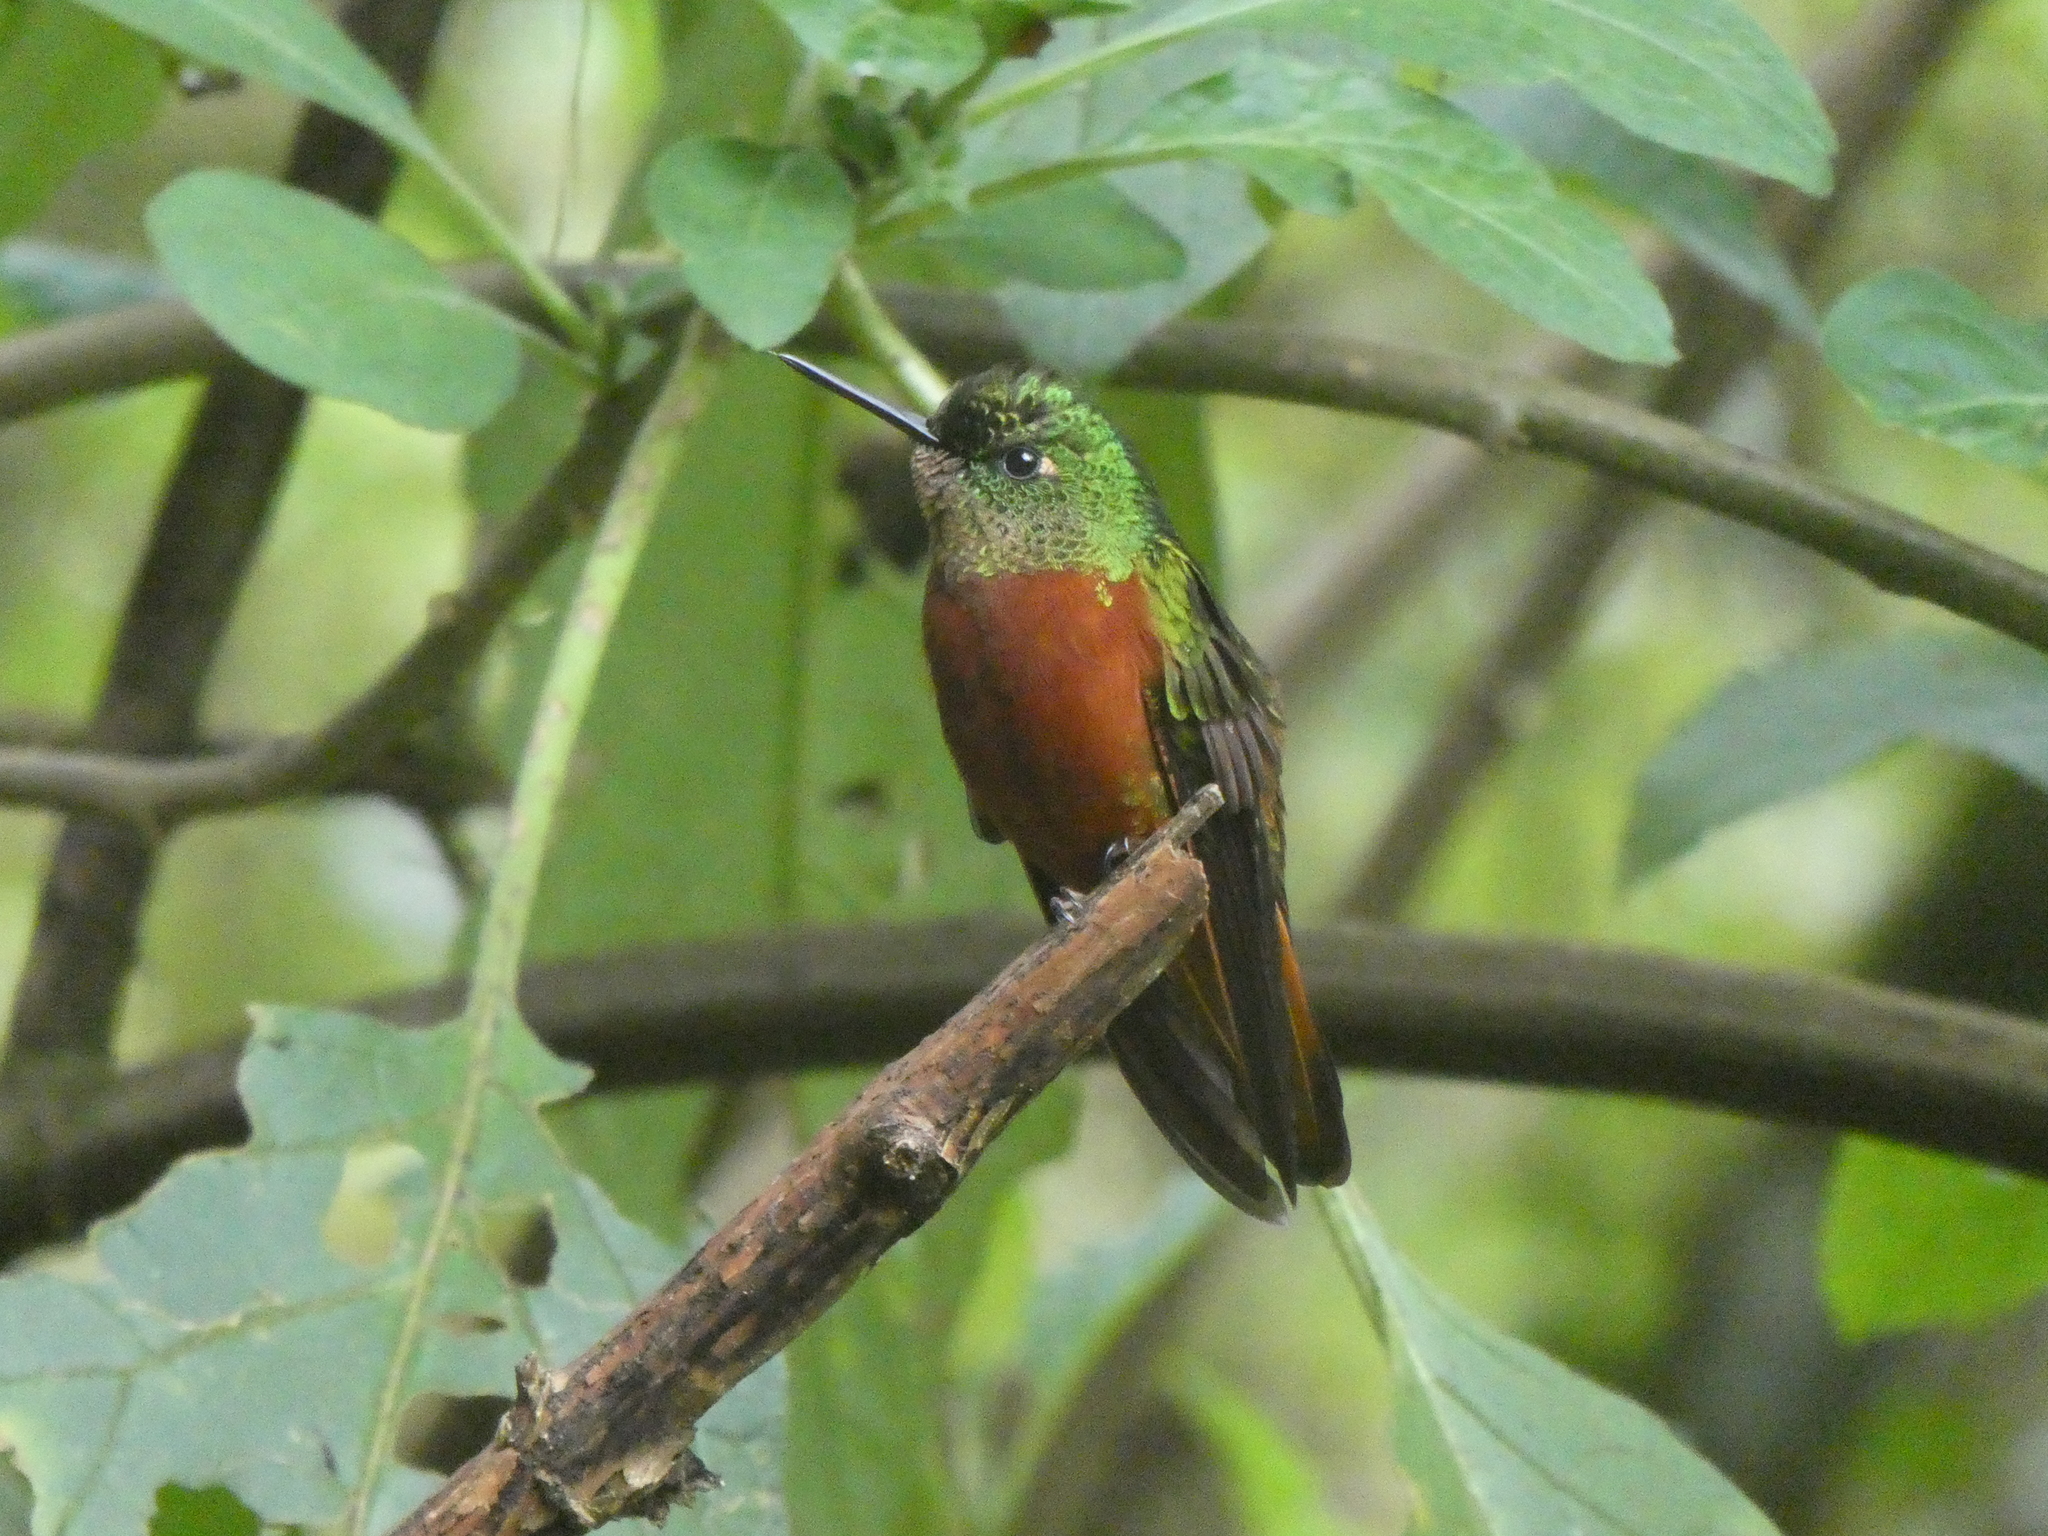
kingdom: Animalia
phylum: Chordata
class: Aves
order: Apodiformes
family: Trochilidae
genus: Boissonneaua
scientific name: Boissonneaua matthewsii
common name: Chestnut-breasted coronet
